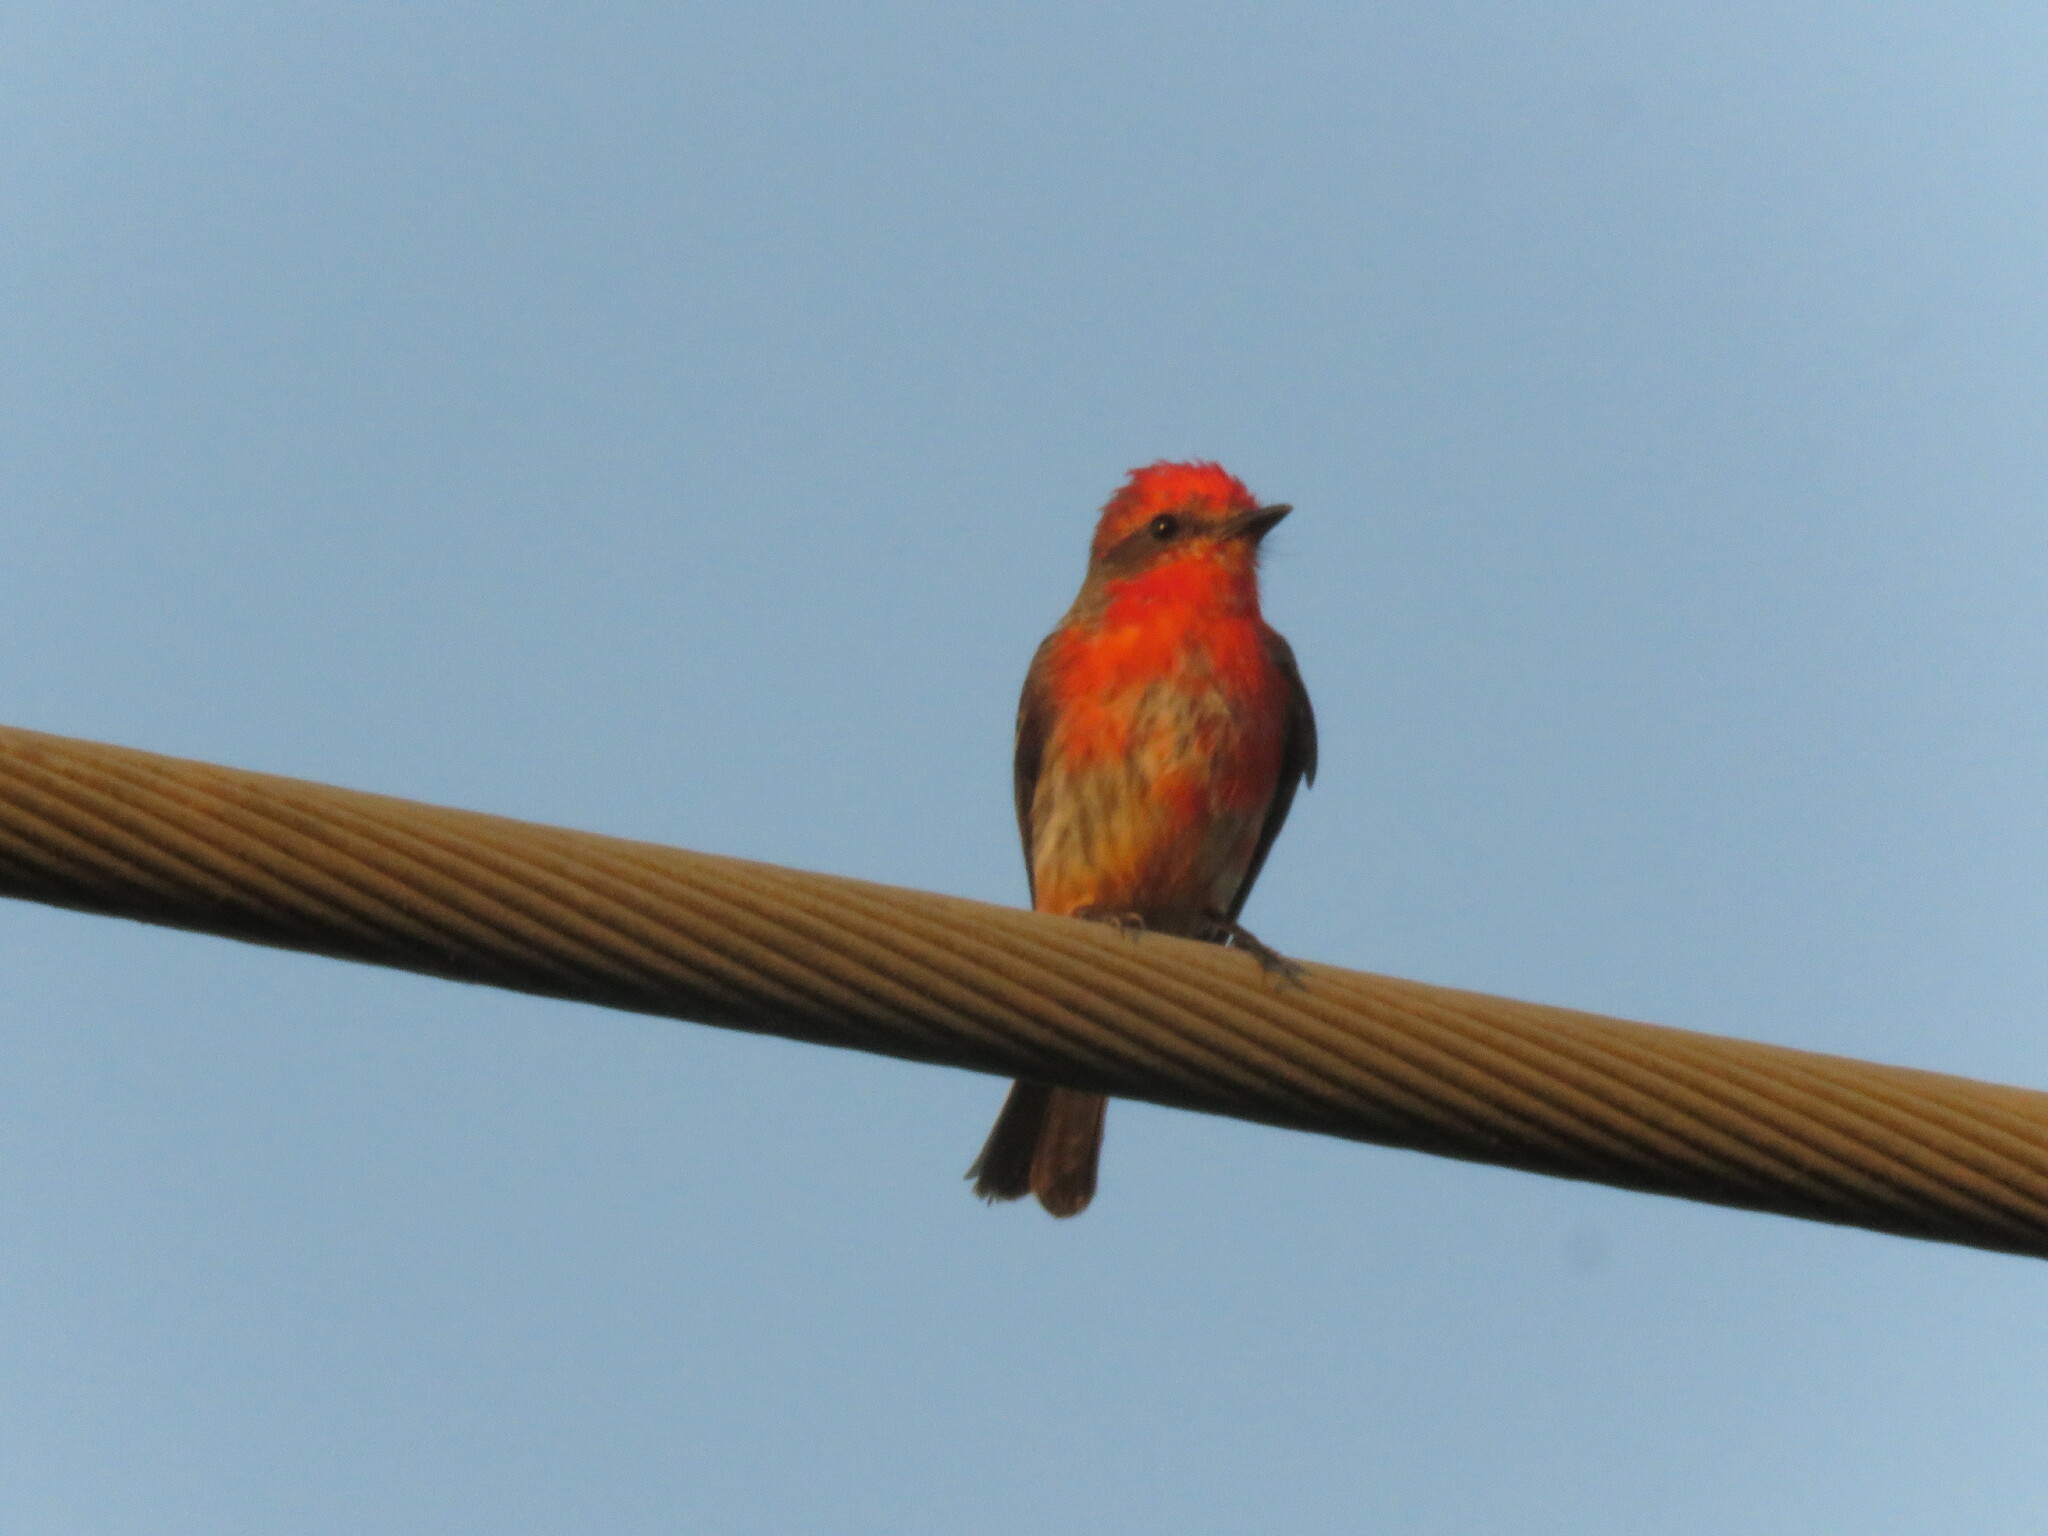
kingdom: Animalia
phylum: Chordata
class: Aves
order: Passeriformes
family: Tyrannidae
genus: Pyrocephalus
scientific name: Pyrocephalus rubinus
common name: Vermilion flycatcher
